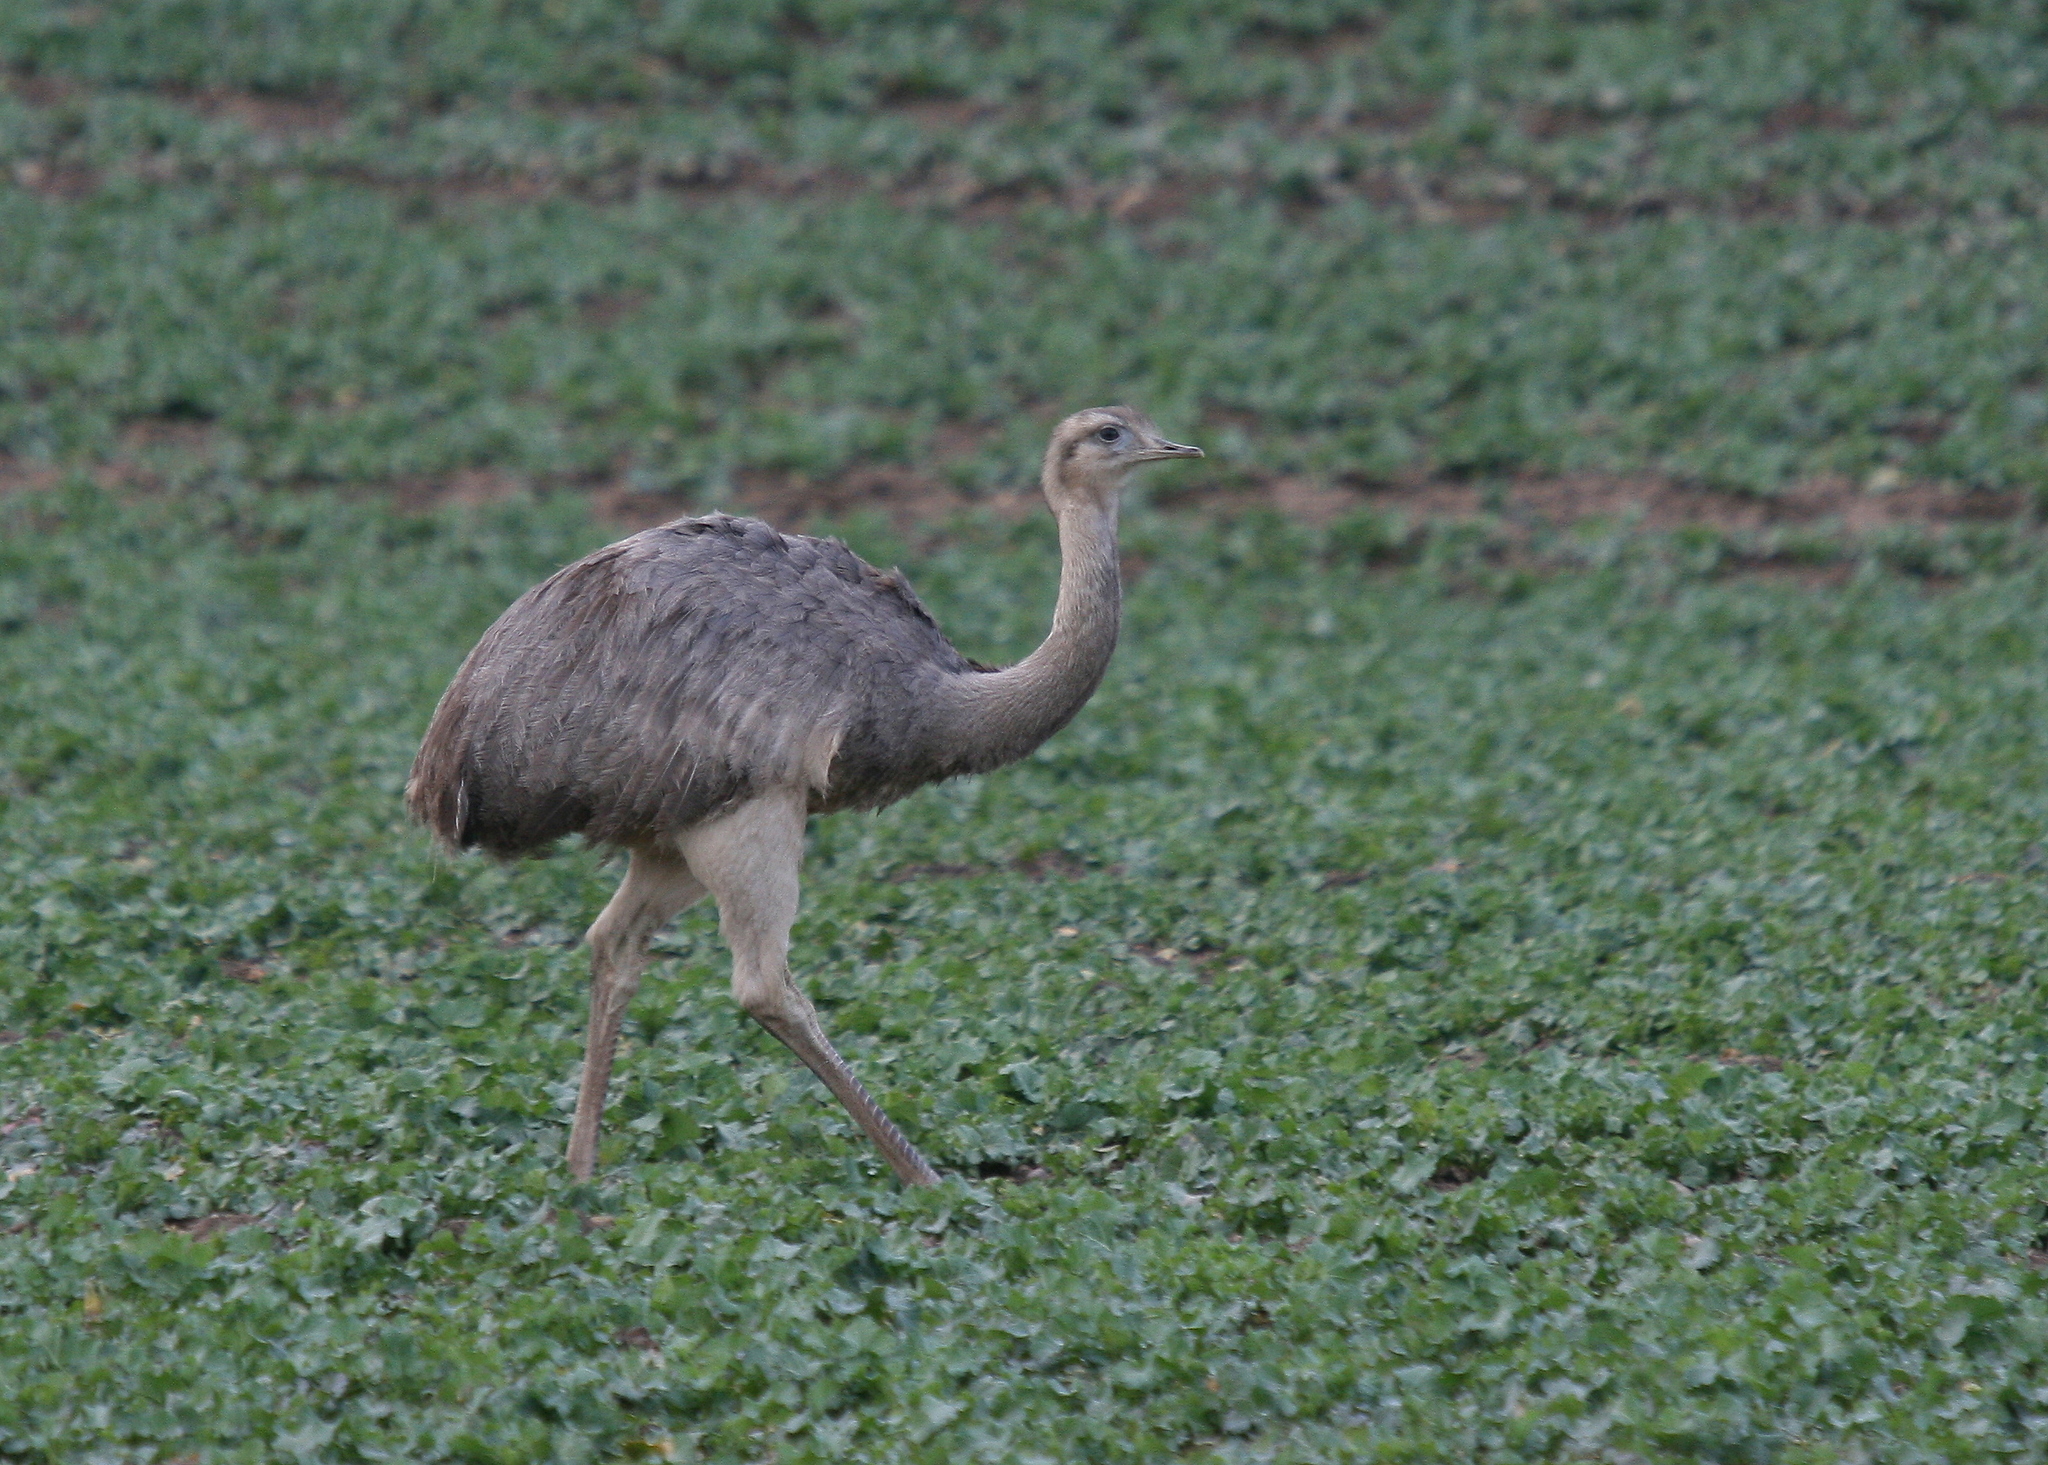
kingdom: Animalia
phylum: Chordata
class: Aves
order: Rheiformes
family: Rheidae
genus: Rhea
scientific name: Rhea americana
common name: Greater rhea
